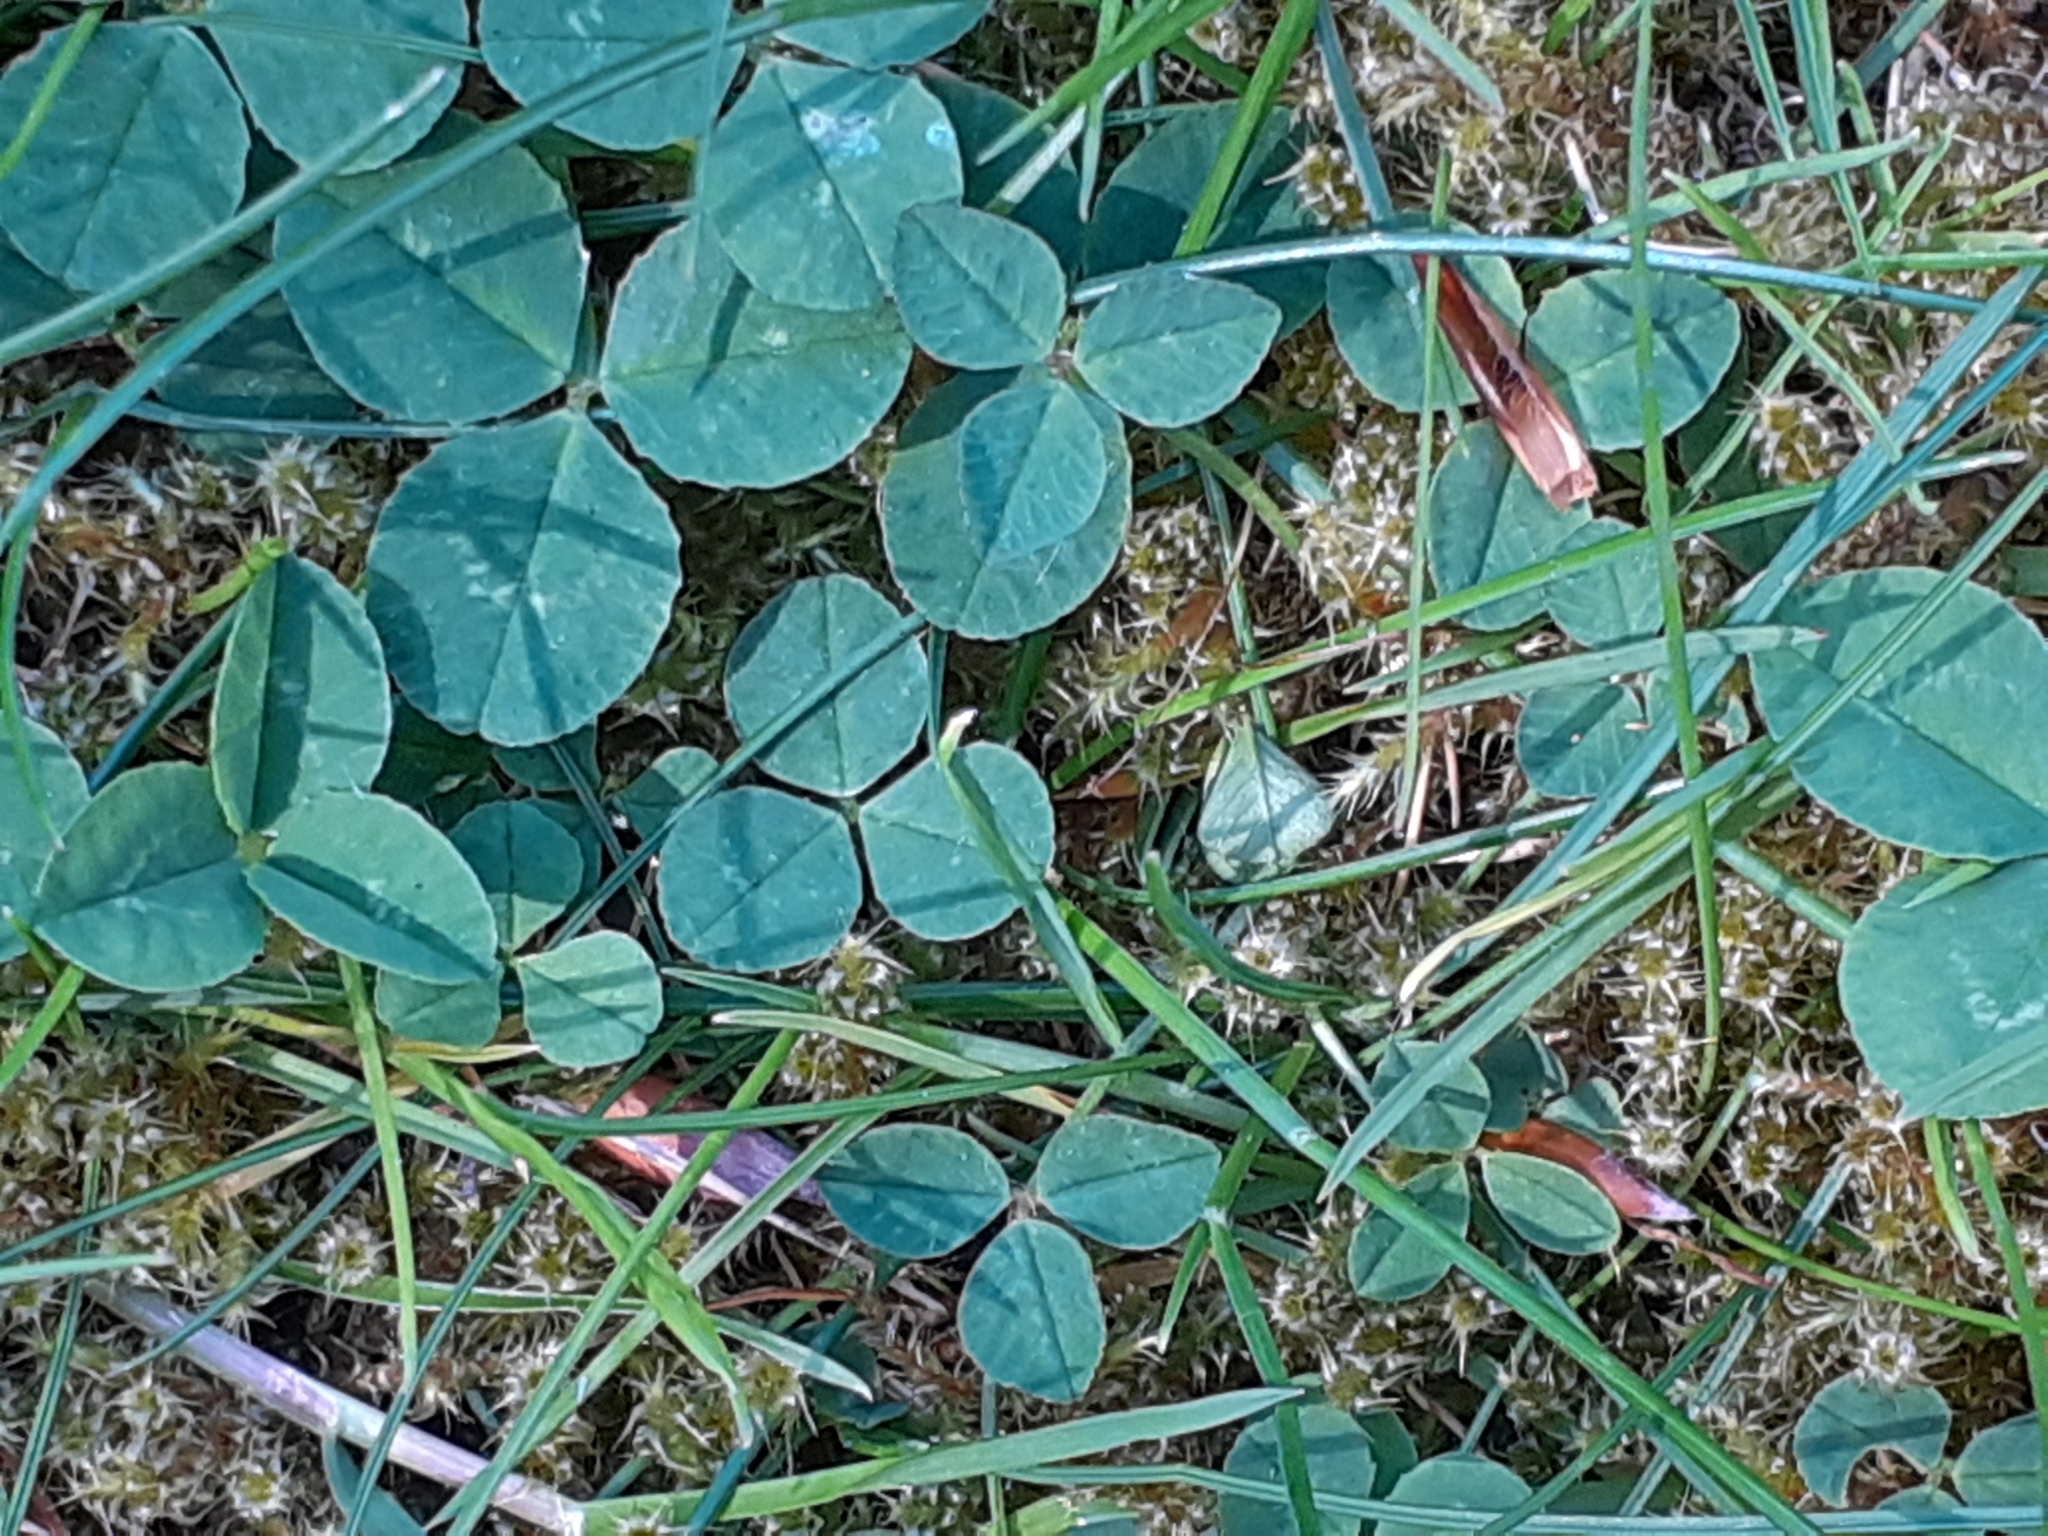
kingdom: Plantae
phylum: Tracheophyta
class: Magnoliopsida
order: Fabales
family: Fabaceae
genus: Trifolium
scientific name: Trifolium repens
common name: White clover
